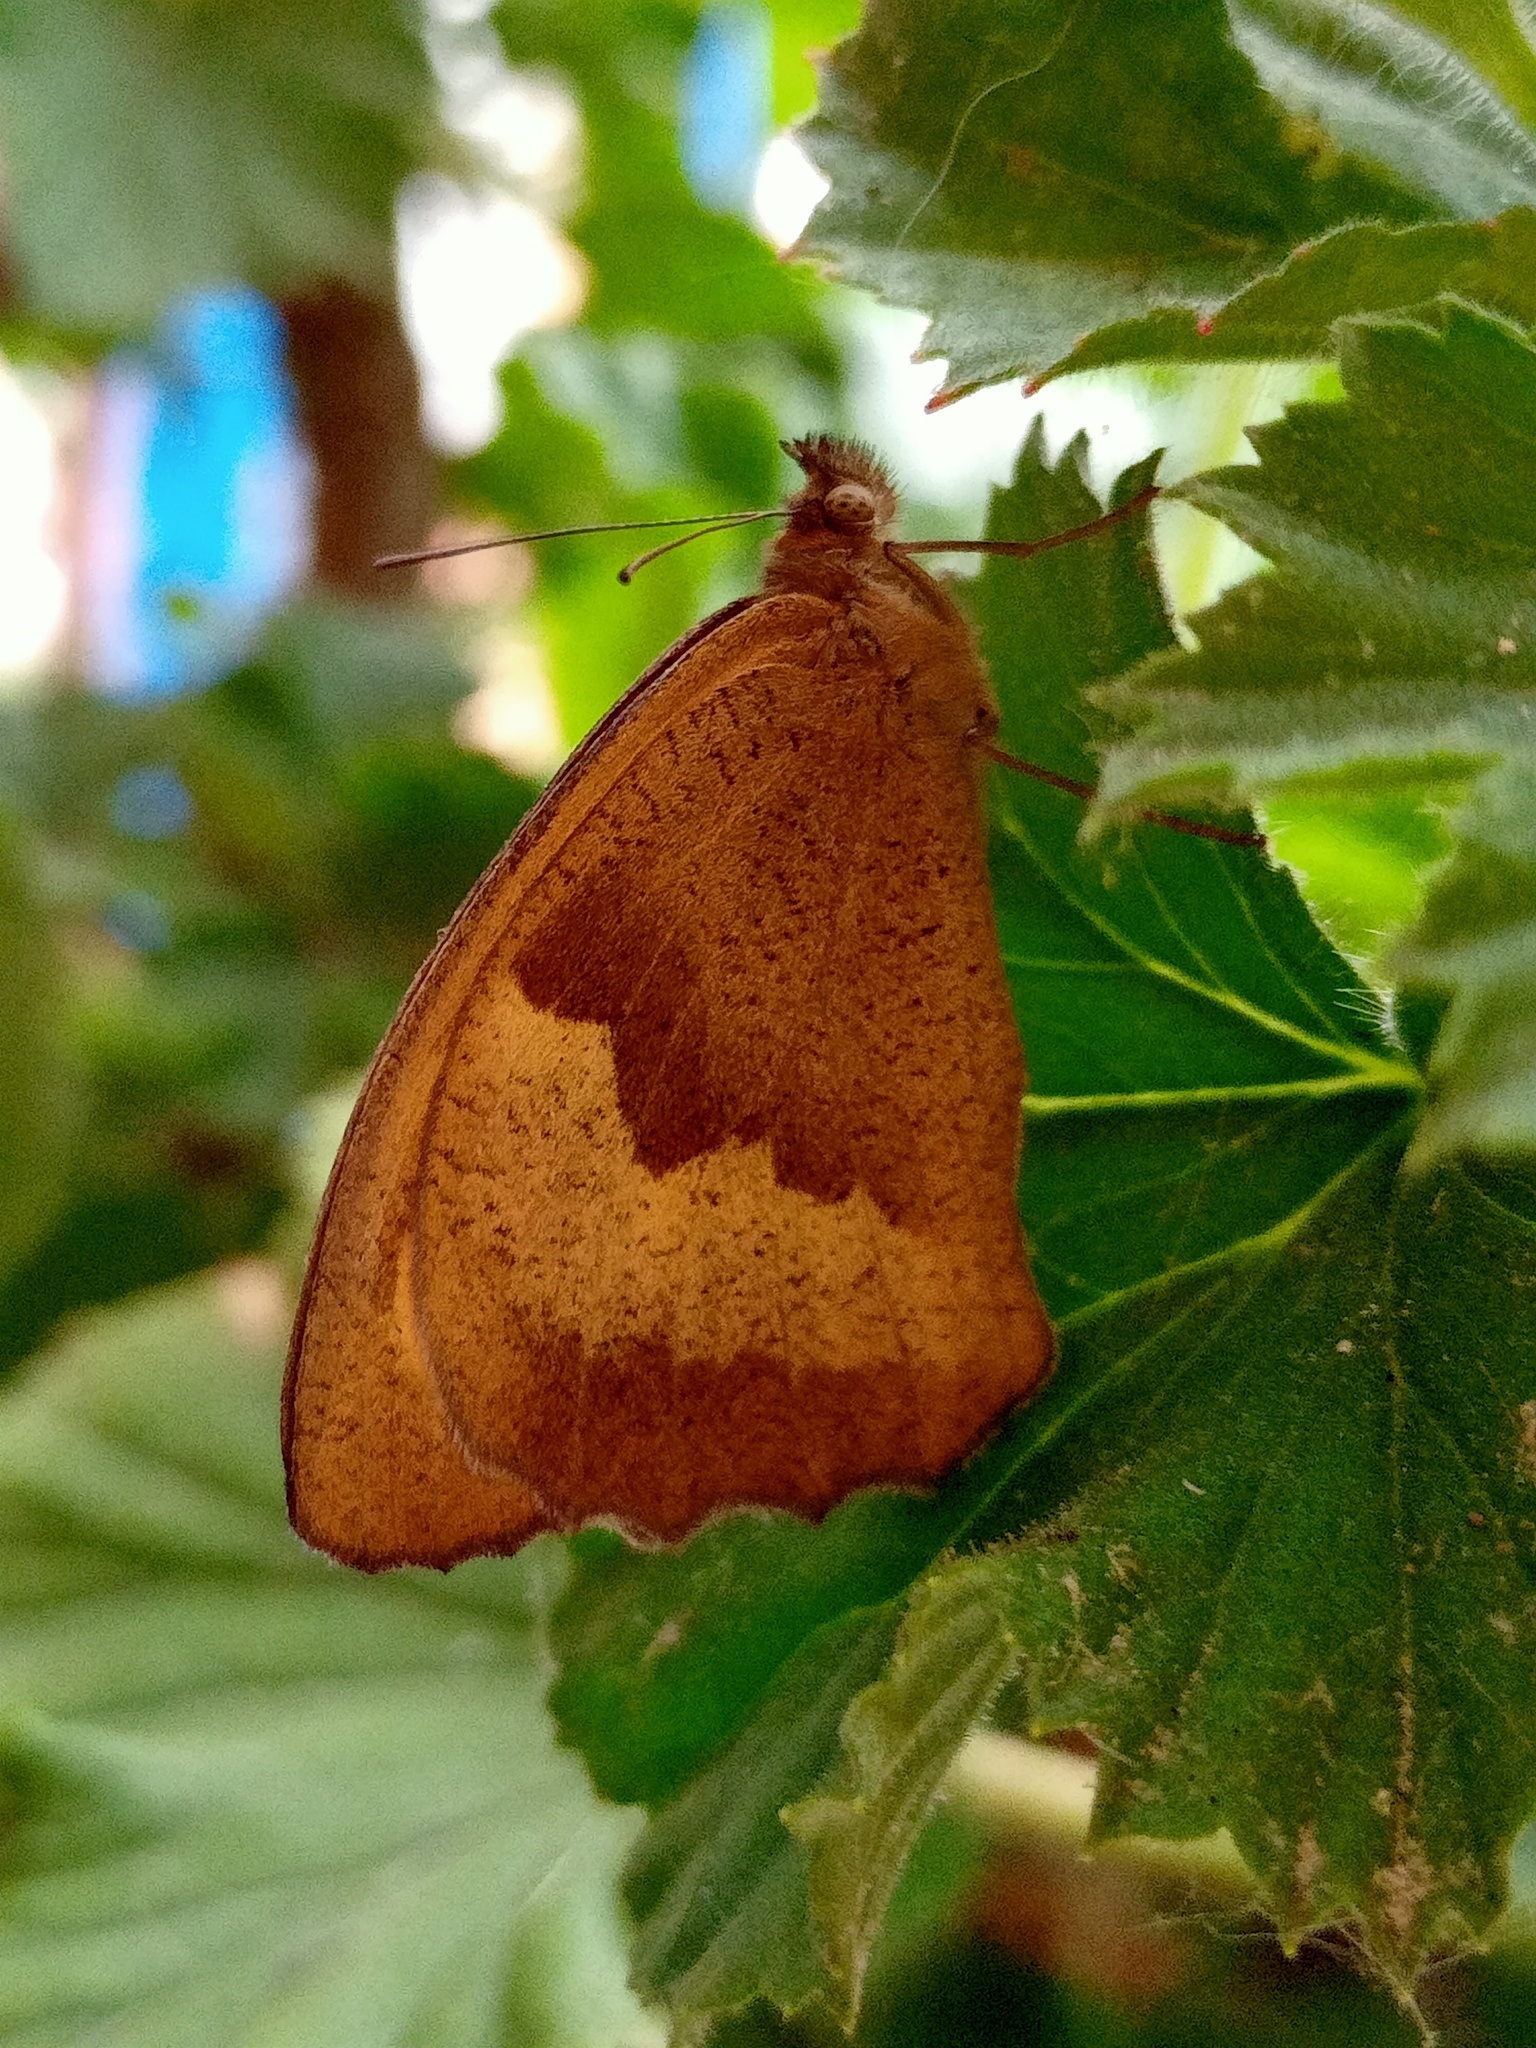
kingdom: Animalia
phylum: Arthropoda
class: Insecta
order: Lepidoptera
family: Nymphalidae
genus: Maniola
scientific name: Maniola jurtina
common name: Meadow brown
